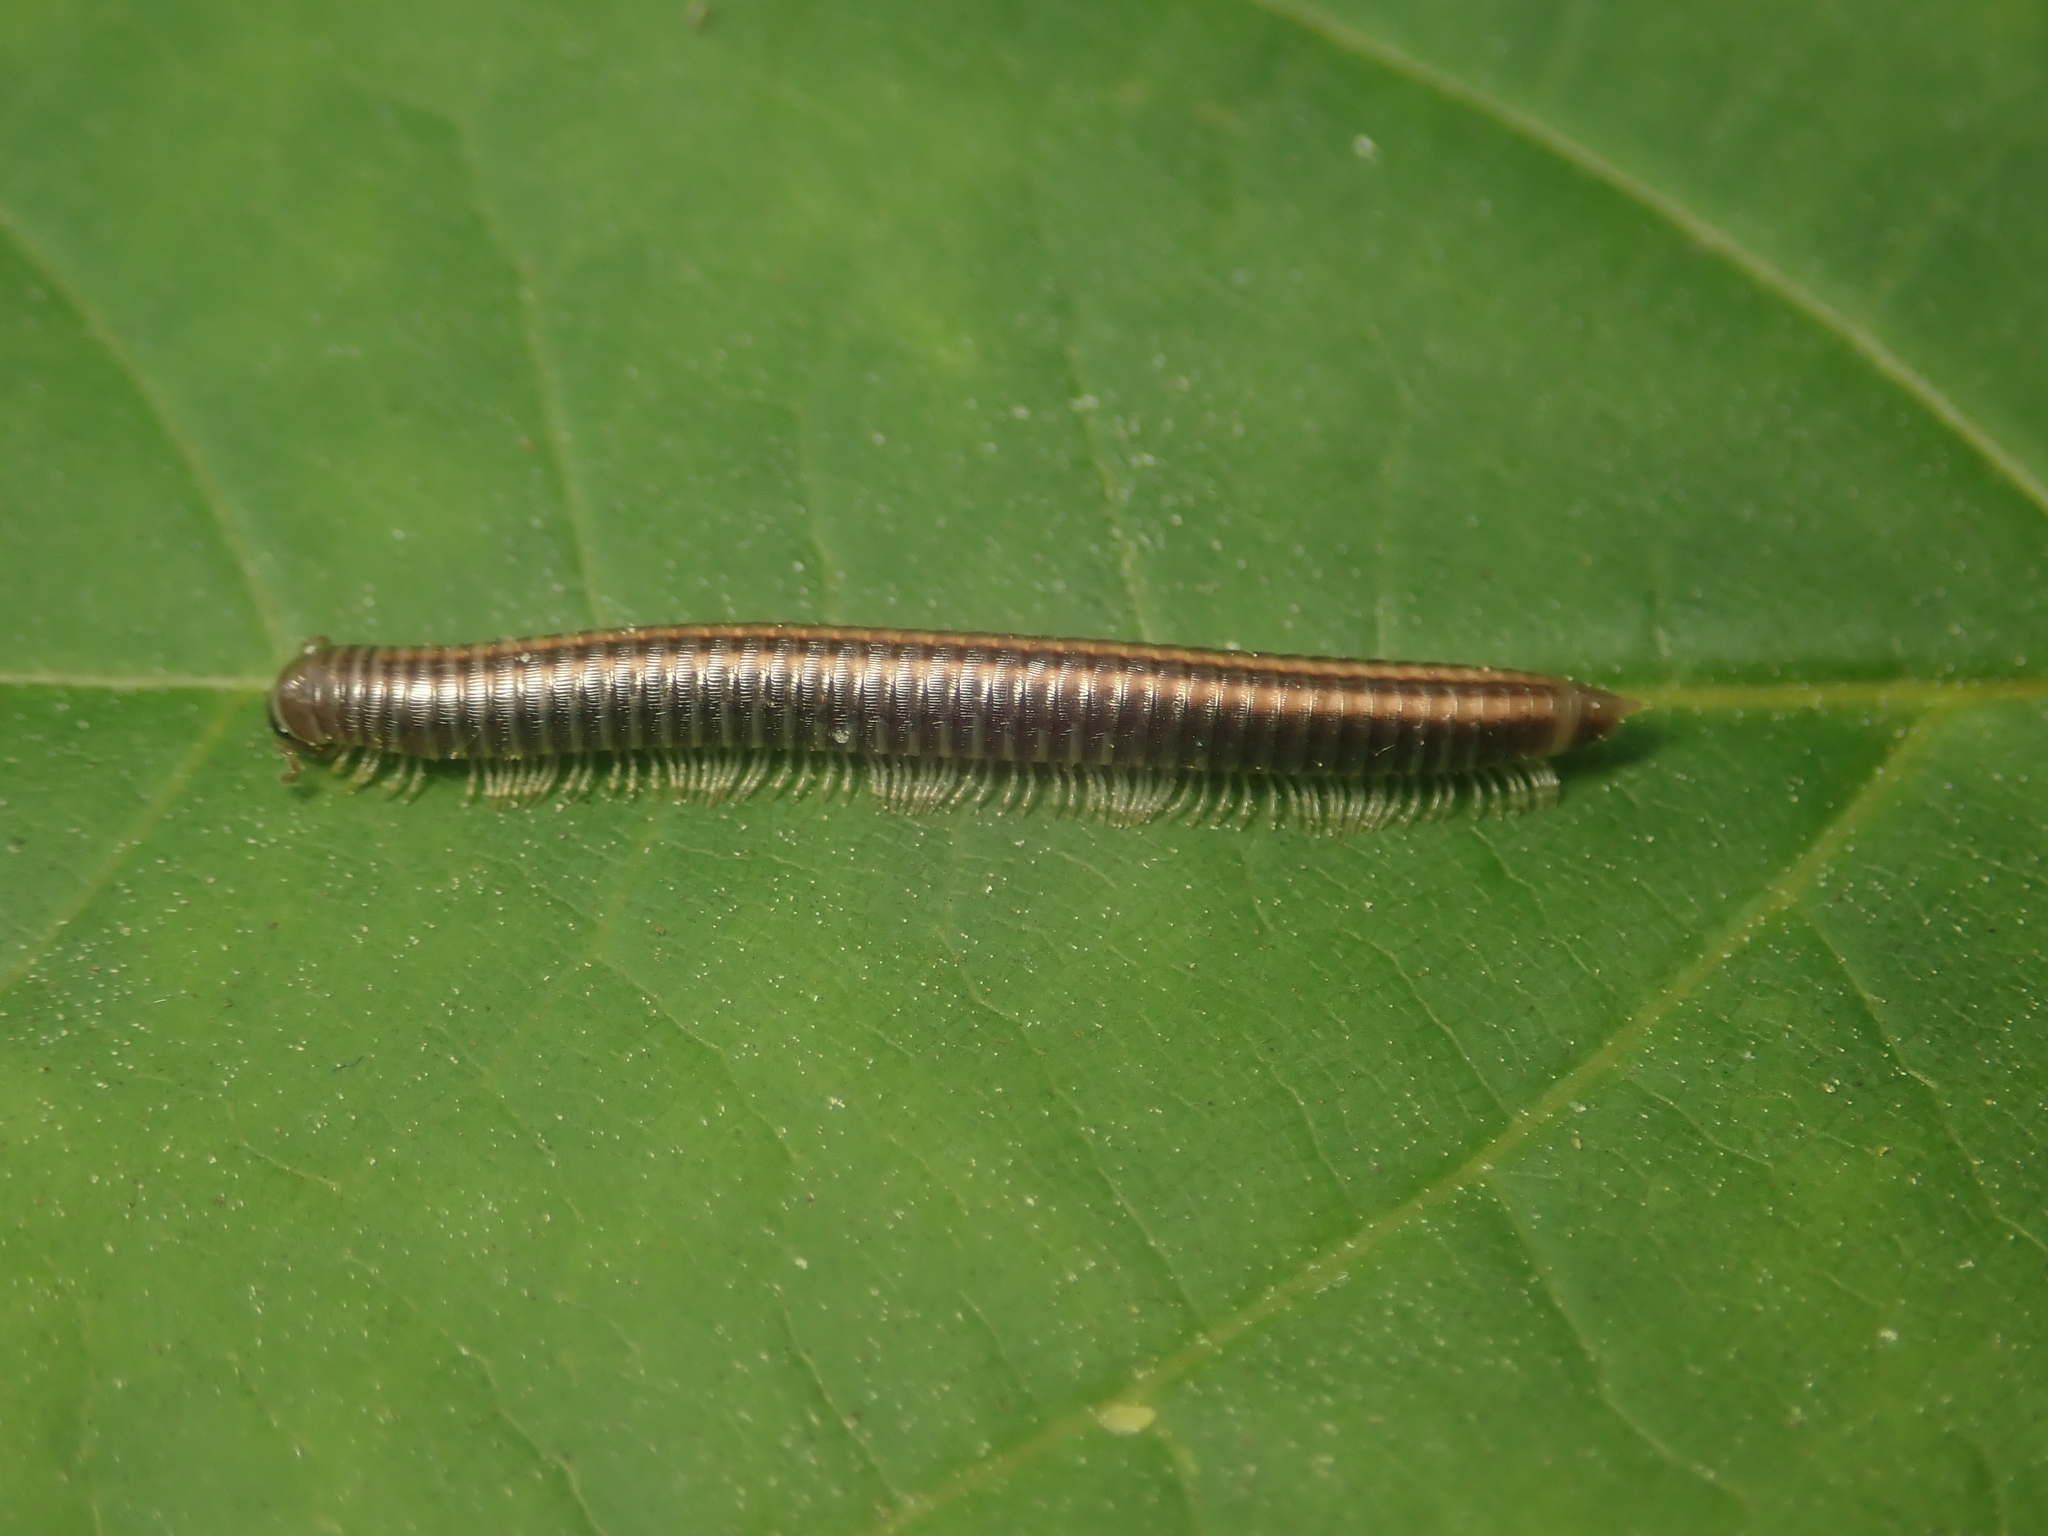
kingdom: Animalia
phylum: Arthropoda
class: Diplopoda
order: Julida
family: Julidae
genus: Ommatoiulus
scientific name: Ommatoiulus sabulosus
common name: Striped millipede
